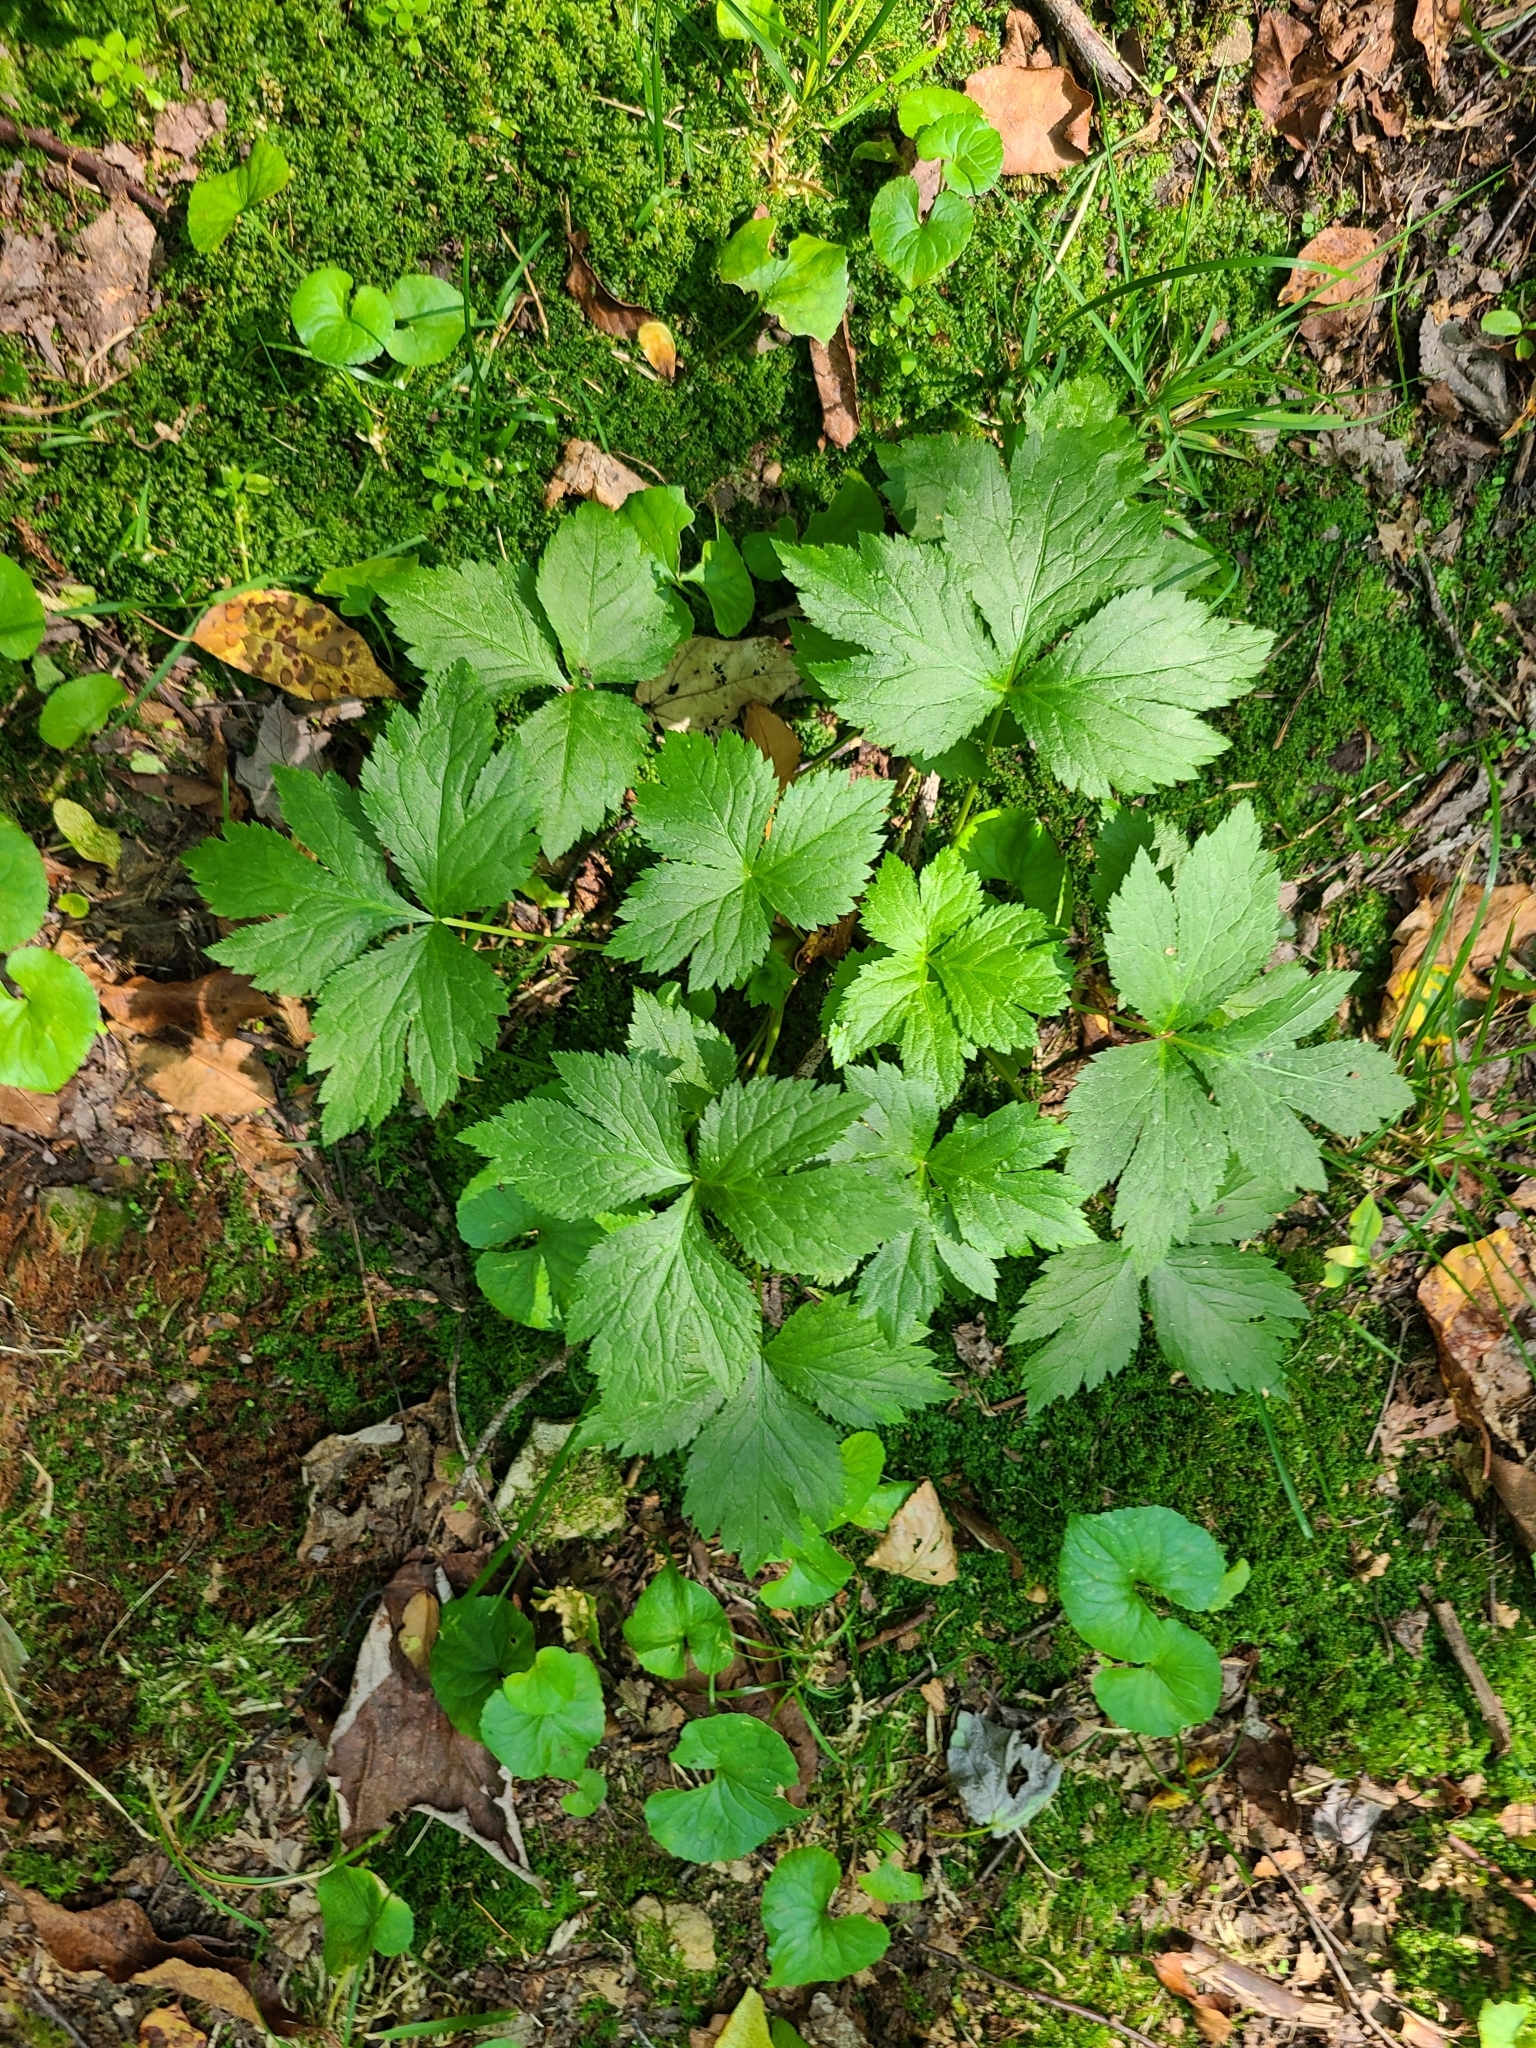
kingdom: Plantae
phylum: Tracheophyta
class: Magnoliopsida
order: Apiales
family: Apiaceae
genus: Cryptotaenia
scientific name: Cryptotaenia canadensis
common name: Honewort
